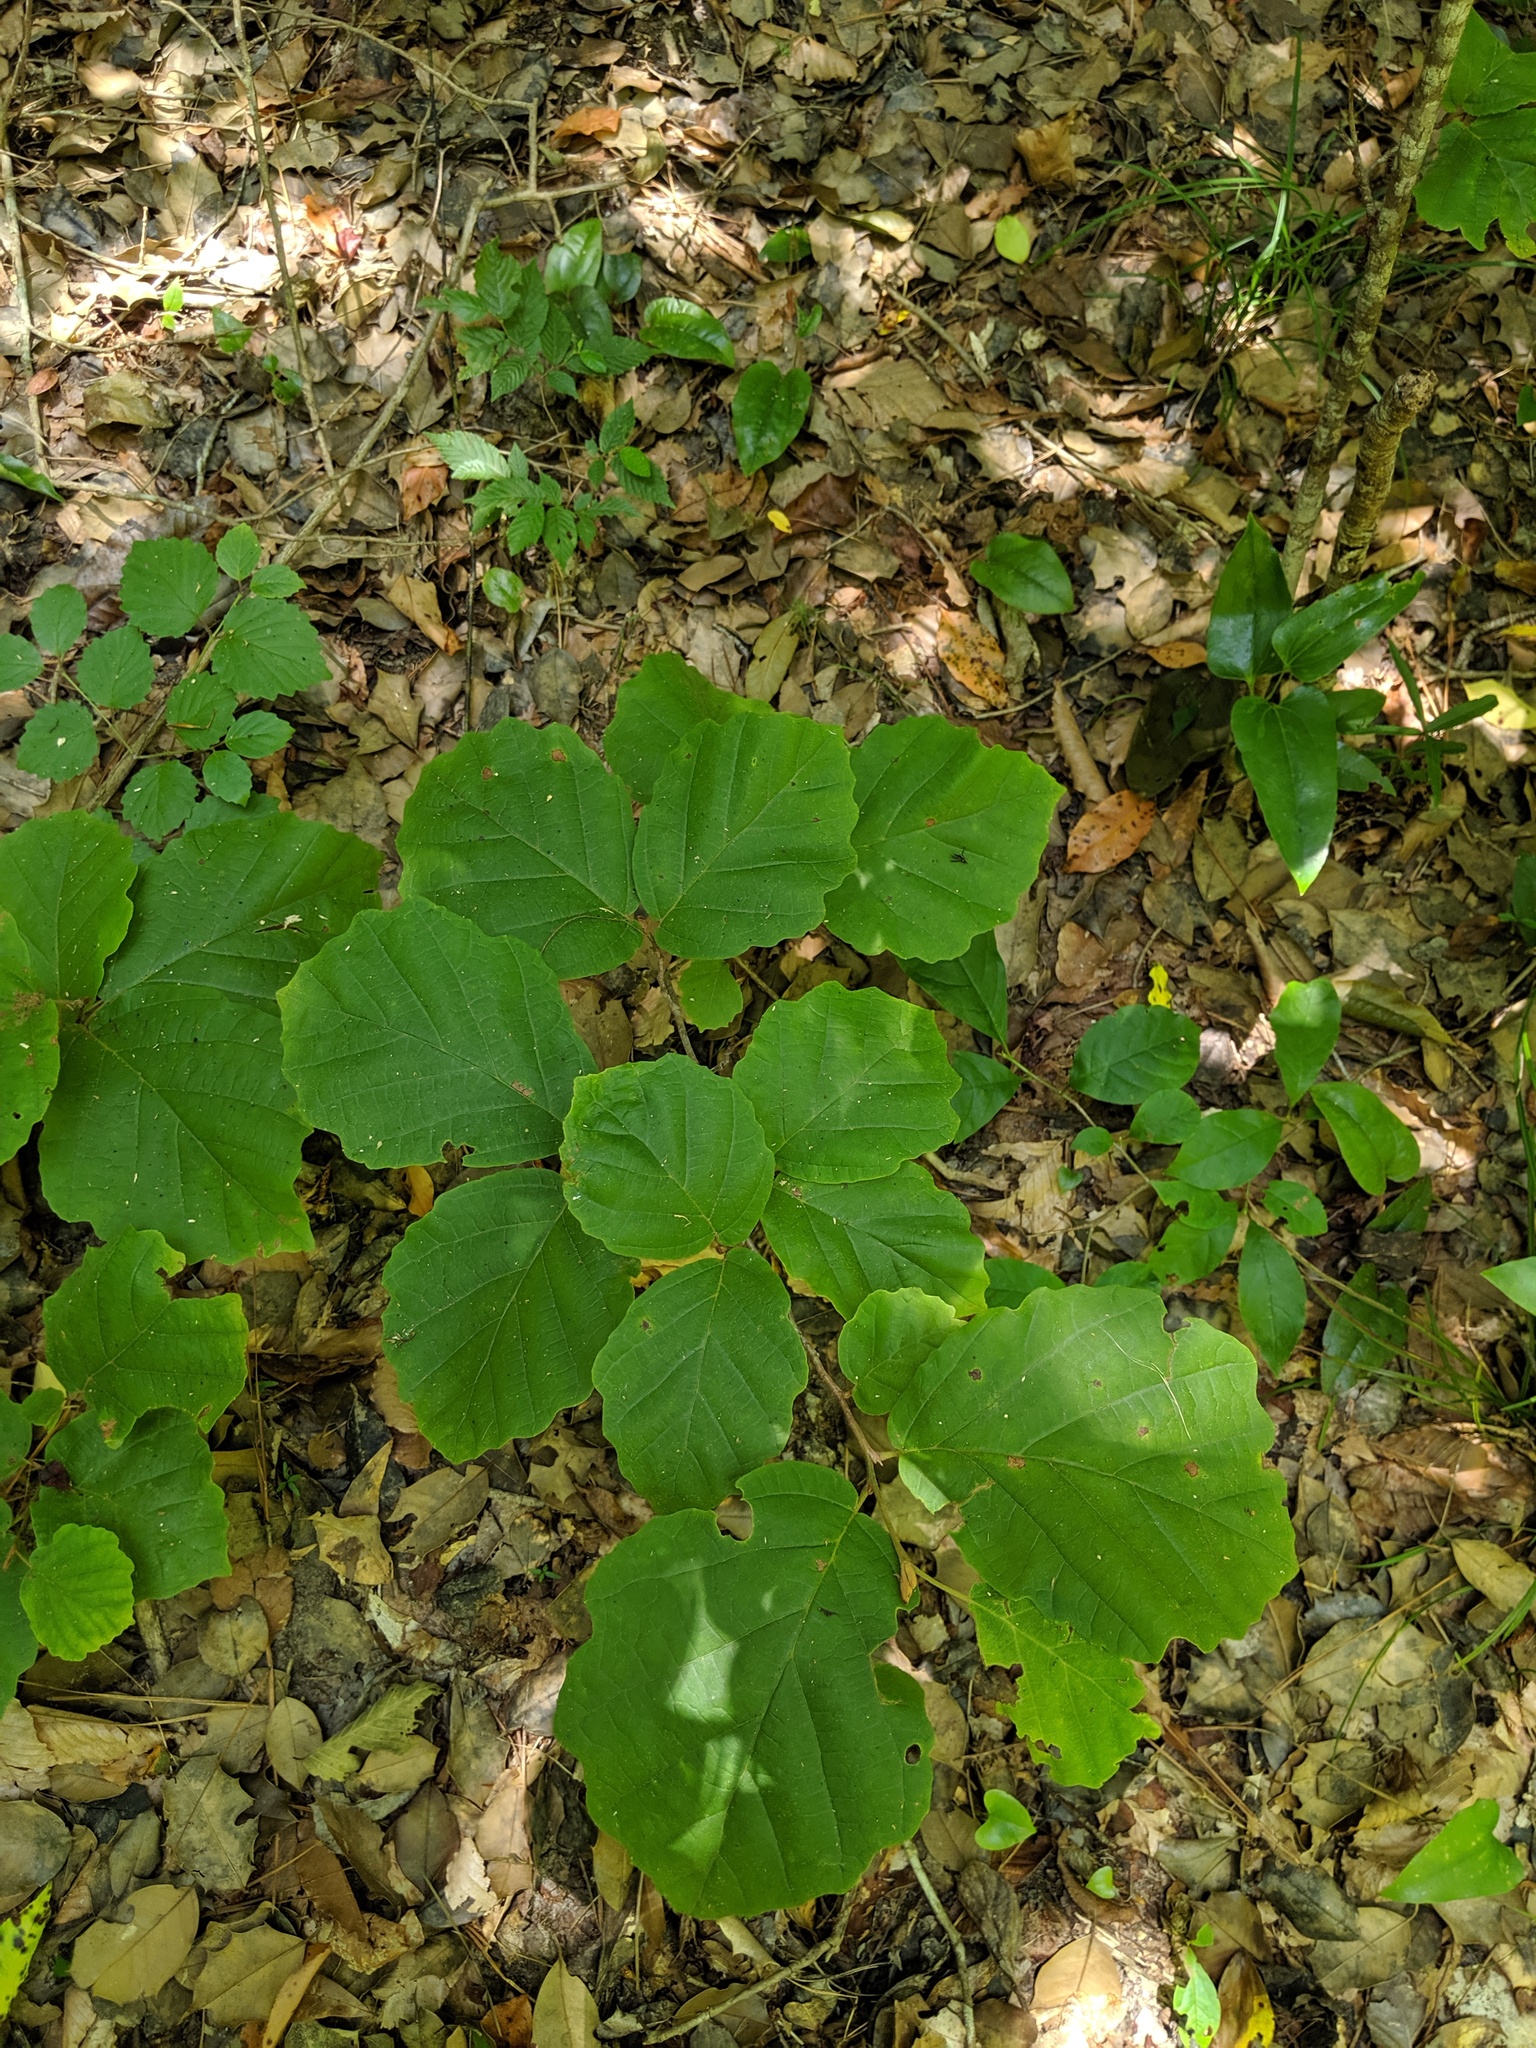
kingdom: Plantae
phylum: Tracheophyta
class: Magnoliopsida
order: Saxifragales
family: Hamamelidaceae
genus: Hamamelis
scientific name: Hamamelis ovalis
